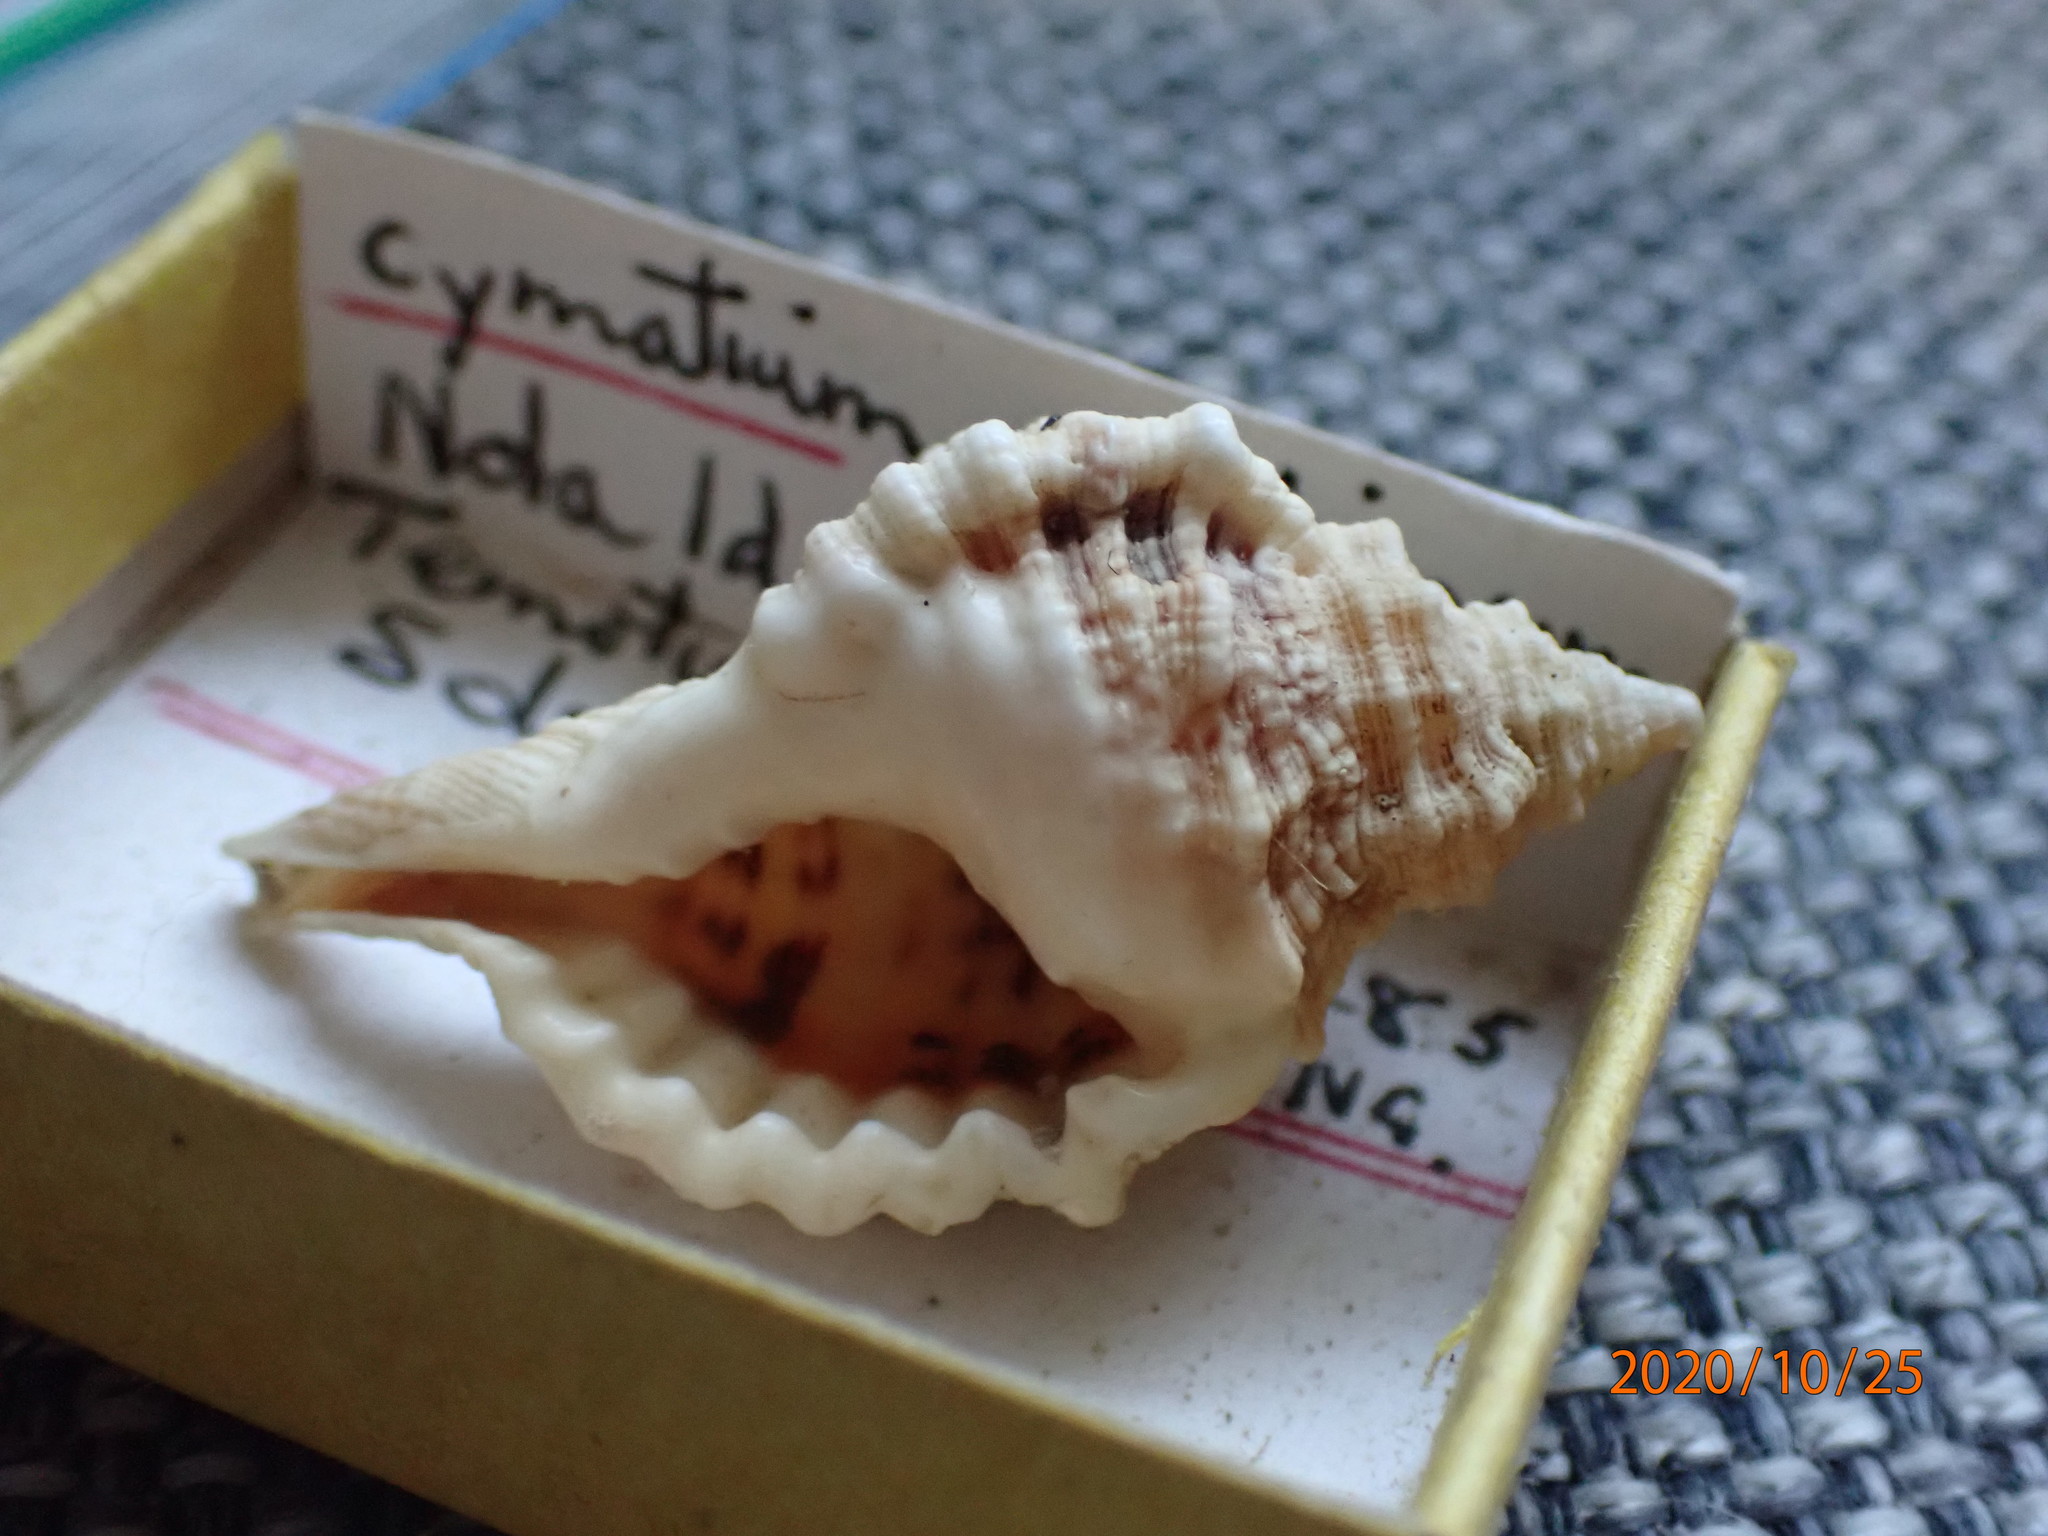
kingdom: Animalia
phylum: Mollusca
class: Gastropoda
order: Littorinimorpha
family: Cymatiidae
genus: Gutturnium
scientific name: Gutturnium muricinum
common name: Knobbed triton
